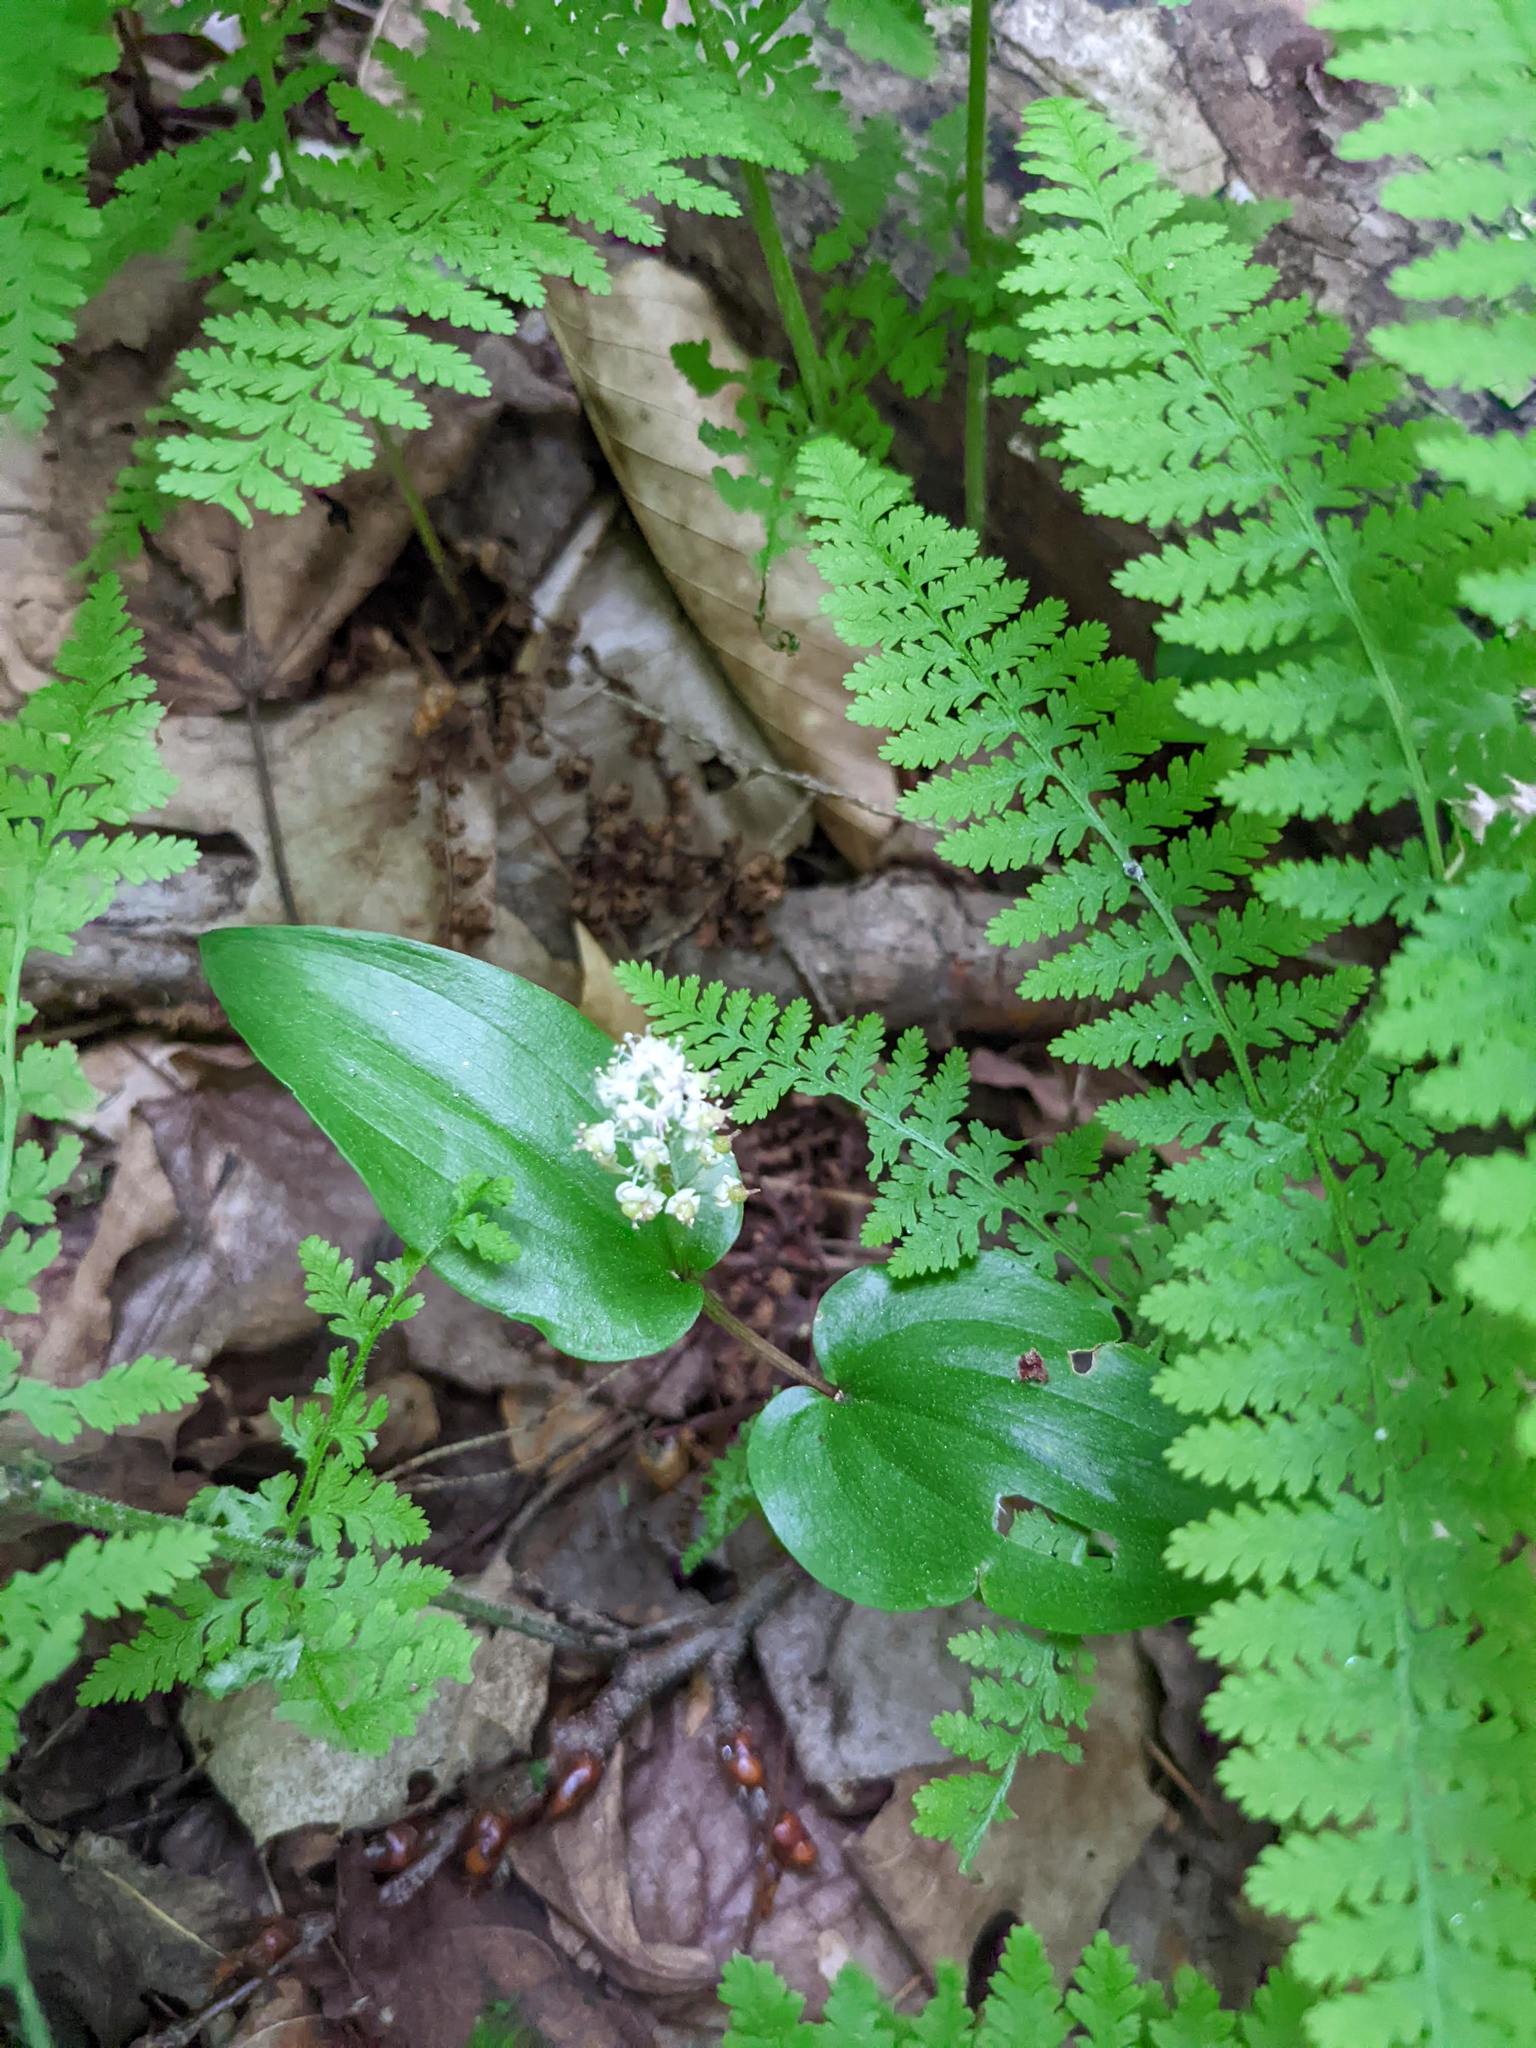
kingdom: Plantae
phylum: Tracheophyta
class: Liliopsida
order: Asparagales
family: Asparagaceae
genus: Maianthemum
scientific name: Maianthemum canadense
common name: False lily-of-the-valley
